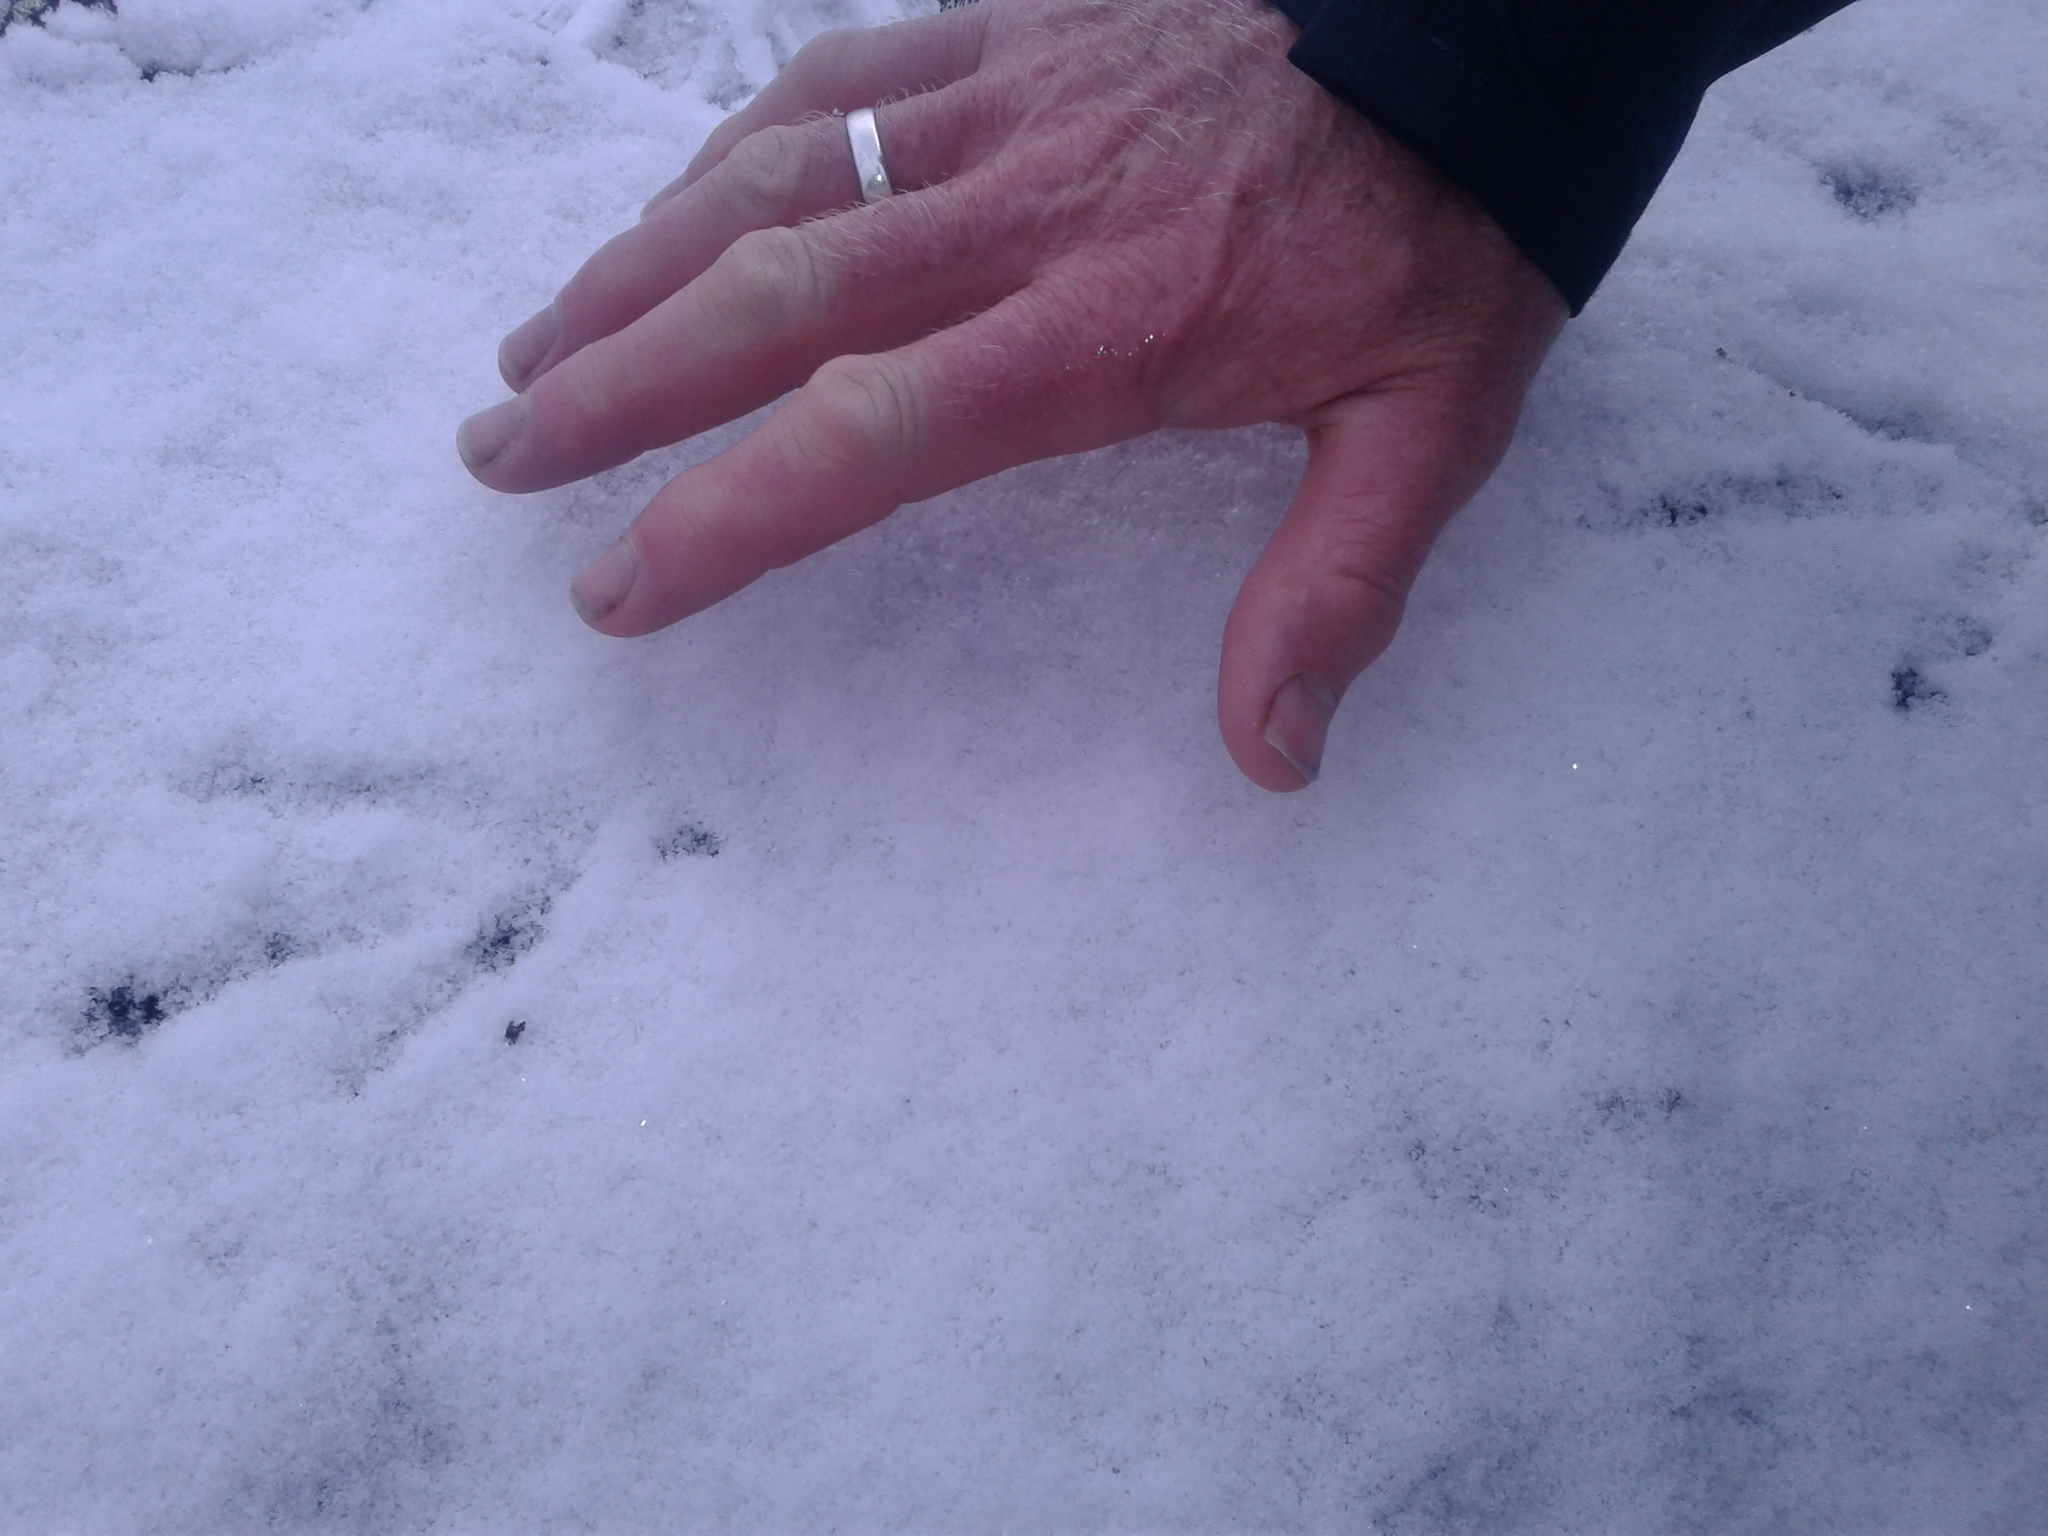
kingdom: Animalia
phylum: Chordata
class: Aves
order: Gruiformes
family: Rallidae
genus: Gallirallus
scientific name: Gallirallus australis
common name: Weka
